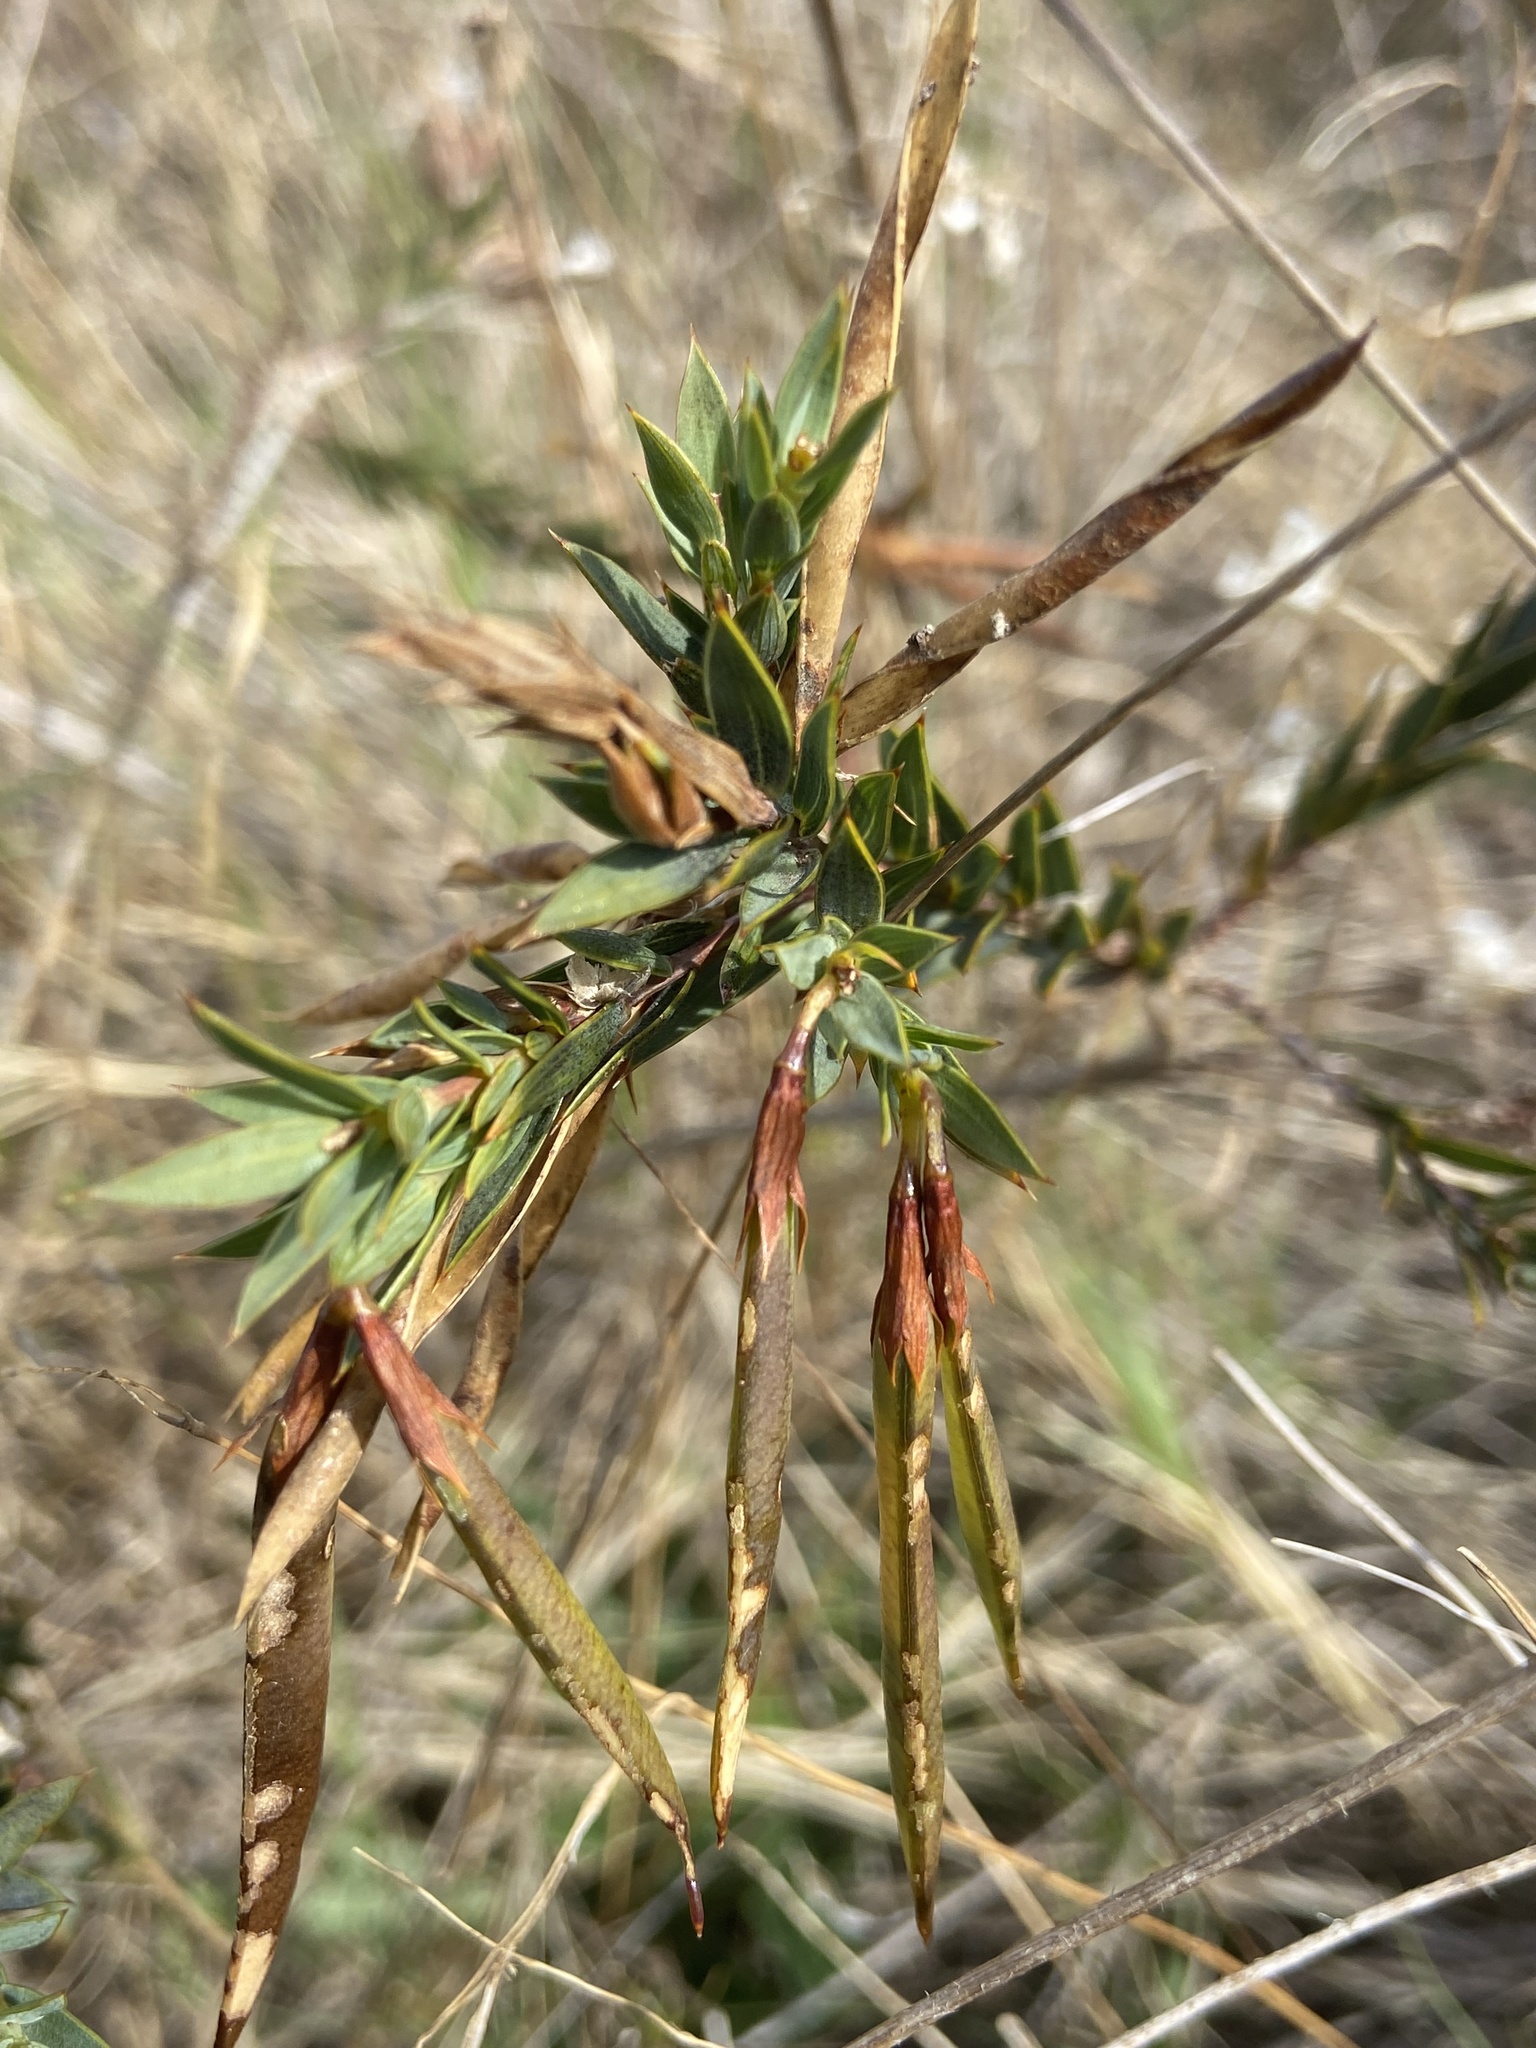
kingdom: Plantae
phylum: Tracheophyta
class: Magnoliopsida
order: Fabales
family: Fabaceae
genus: Aspalathus
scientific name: Aspalathus angustifolia
